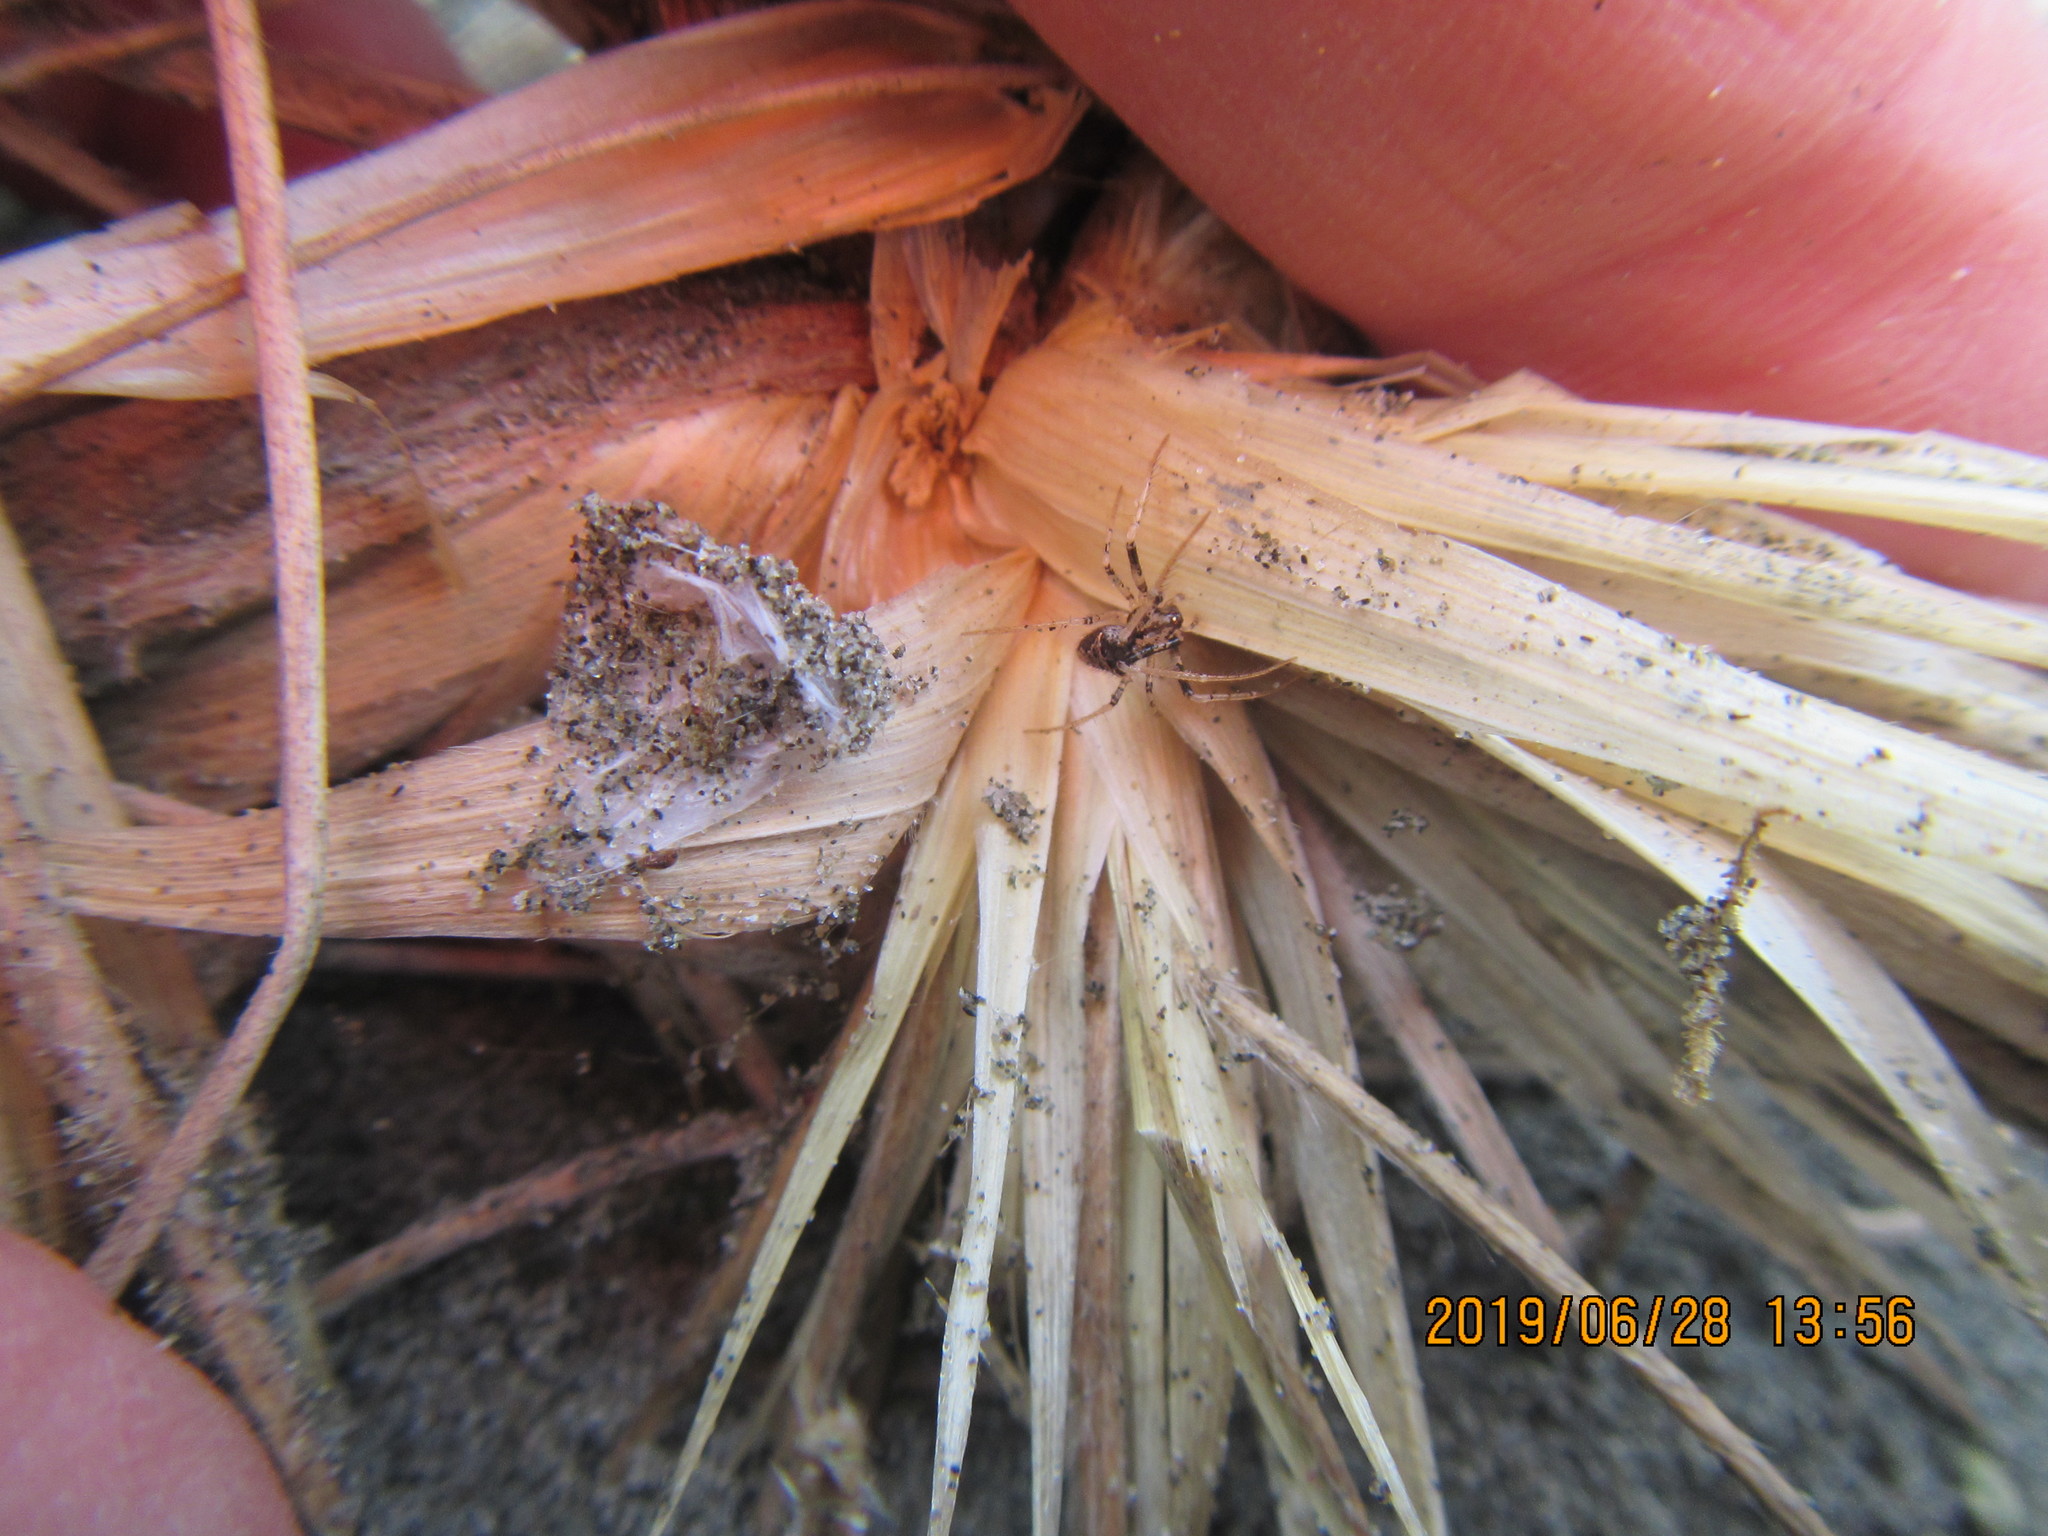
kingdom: Animalia
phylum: Arthropoda
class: Arachnida
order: Araneae
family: Salticidae
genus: Maratus
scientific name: Maratus griseus
